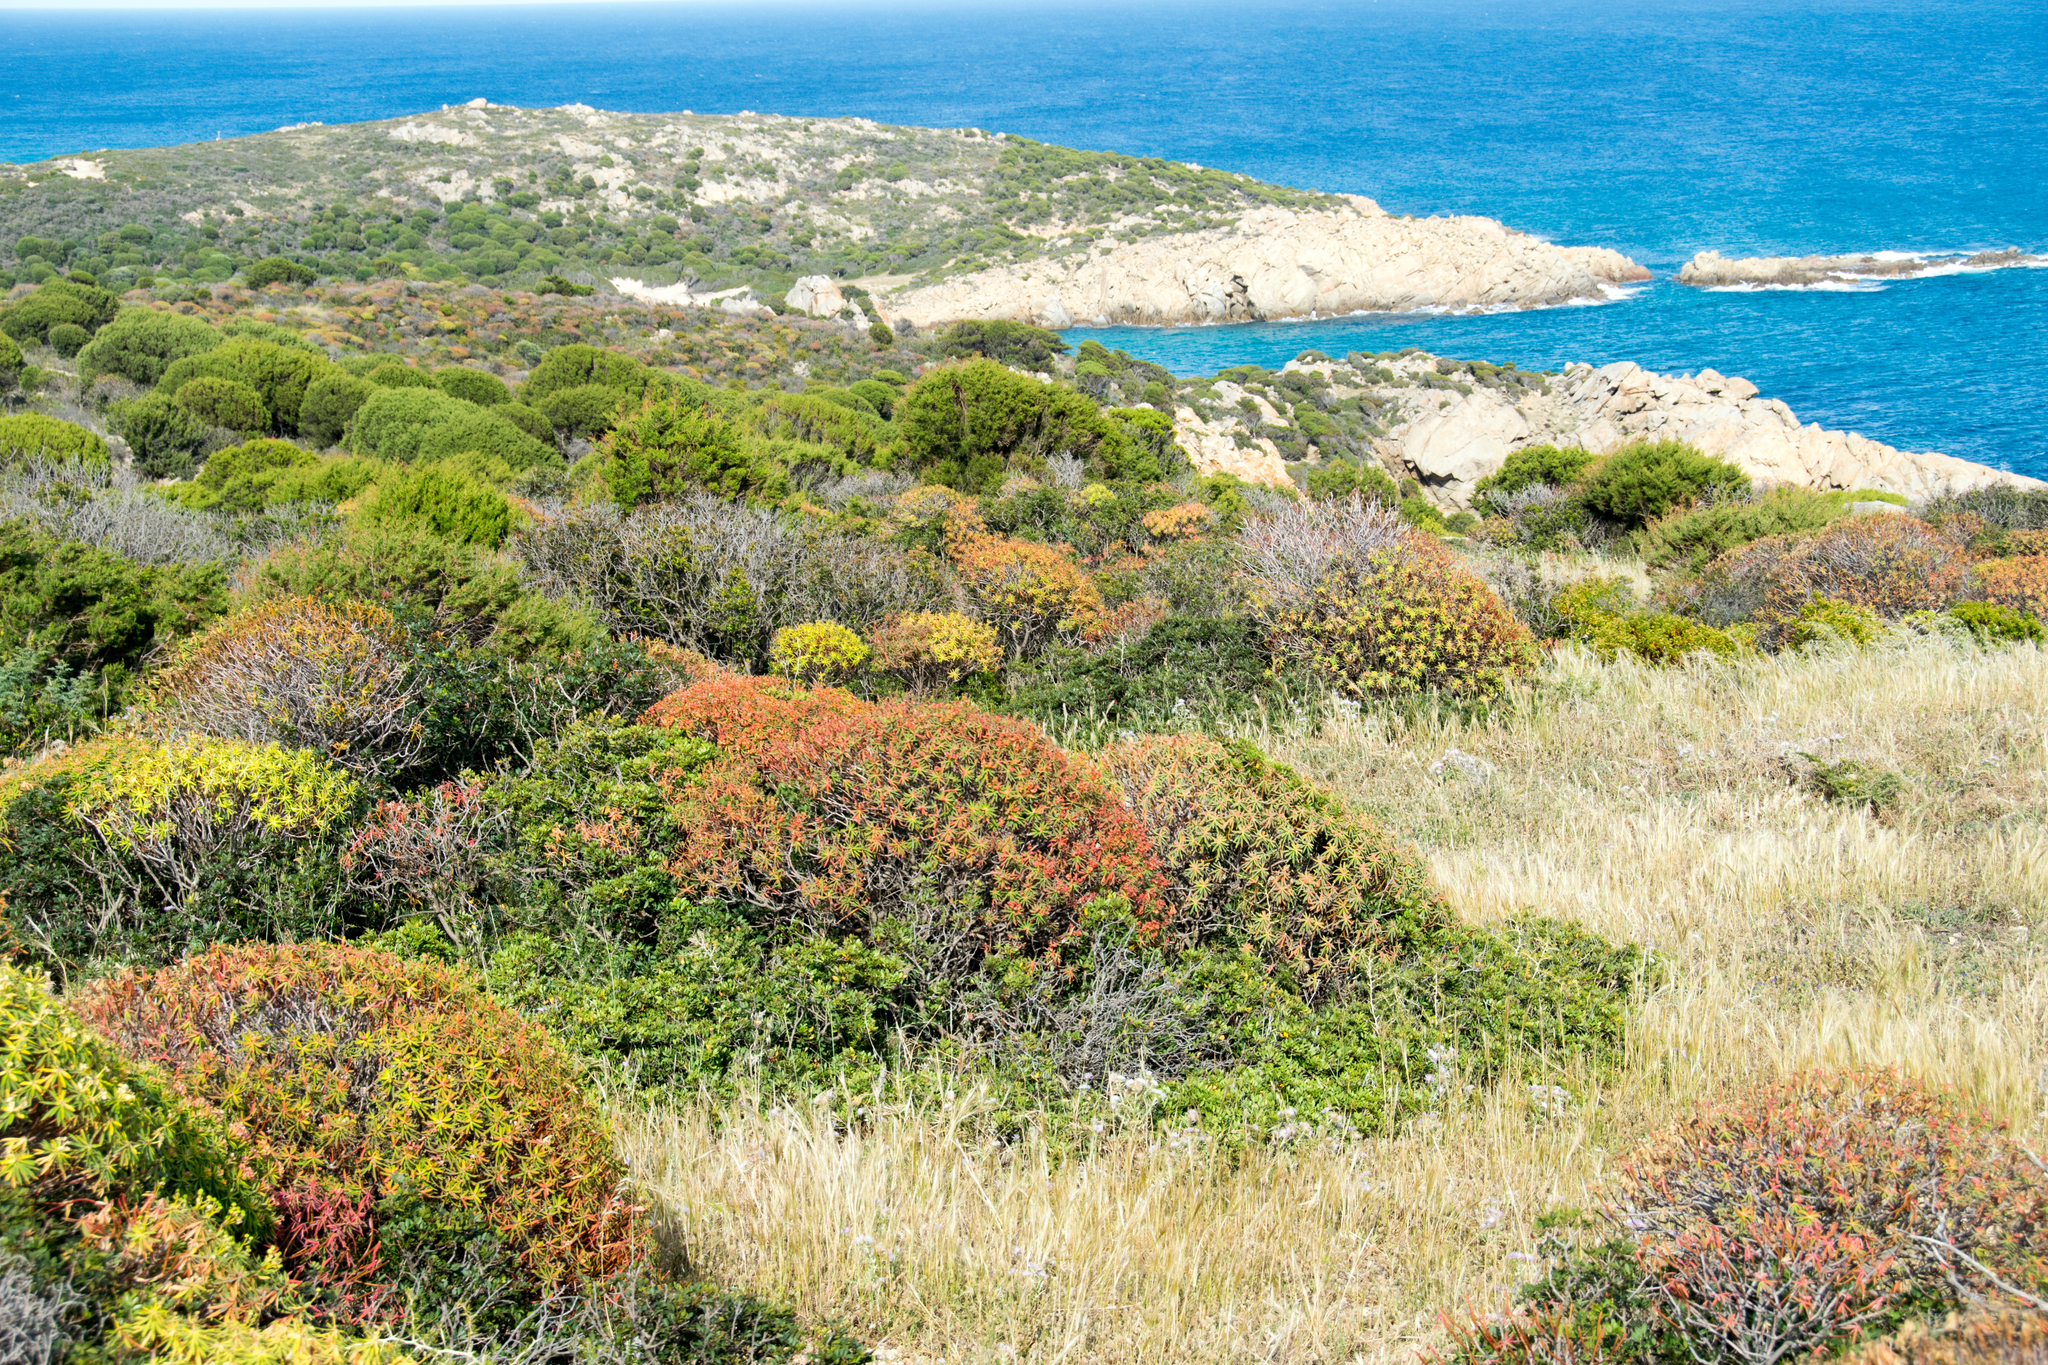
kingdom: Plantae
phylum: Tracheophyta
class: Magnoliopsida
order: Malpighiales
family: Euphorbiaceae
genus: Euphorbia
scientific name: Euphorbia dendroides
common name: Tree spurge
